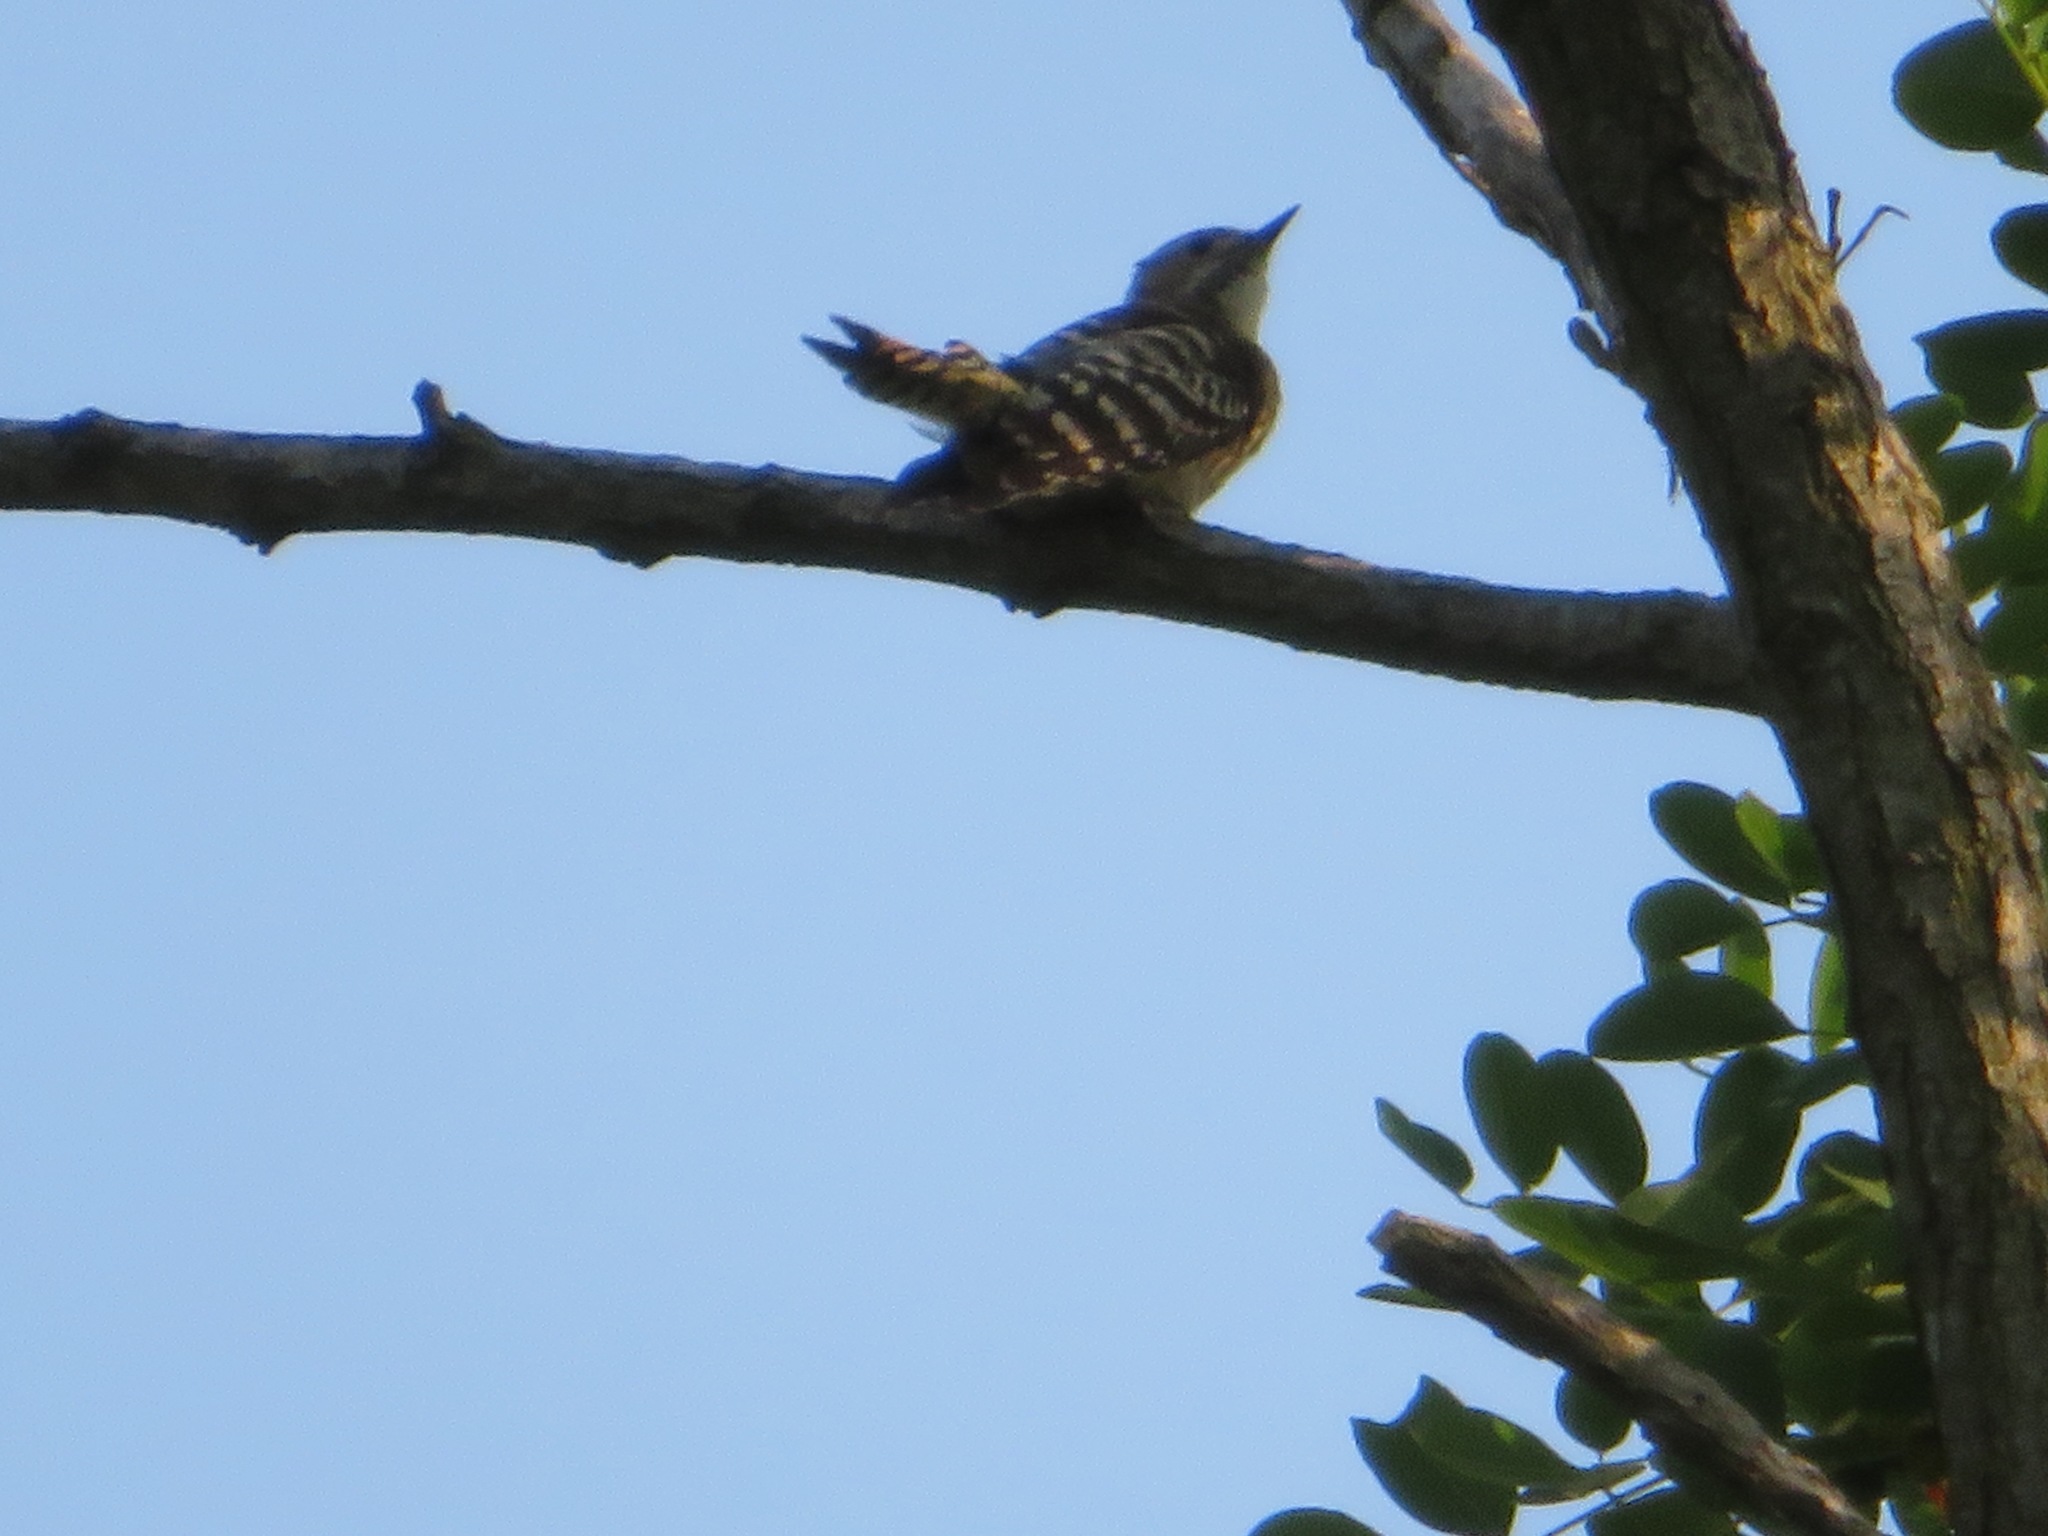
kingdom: Animalia
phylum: Chordata
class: Aves
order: Piciformes
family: Picidae
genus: Yungipicus
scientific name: Yungipicus kizuki
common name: Japanese pygmy woodpecker
